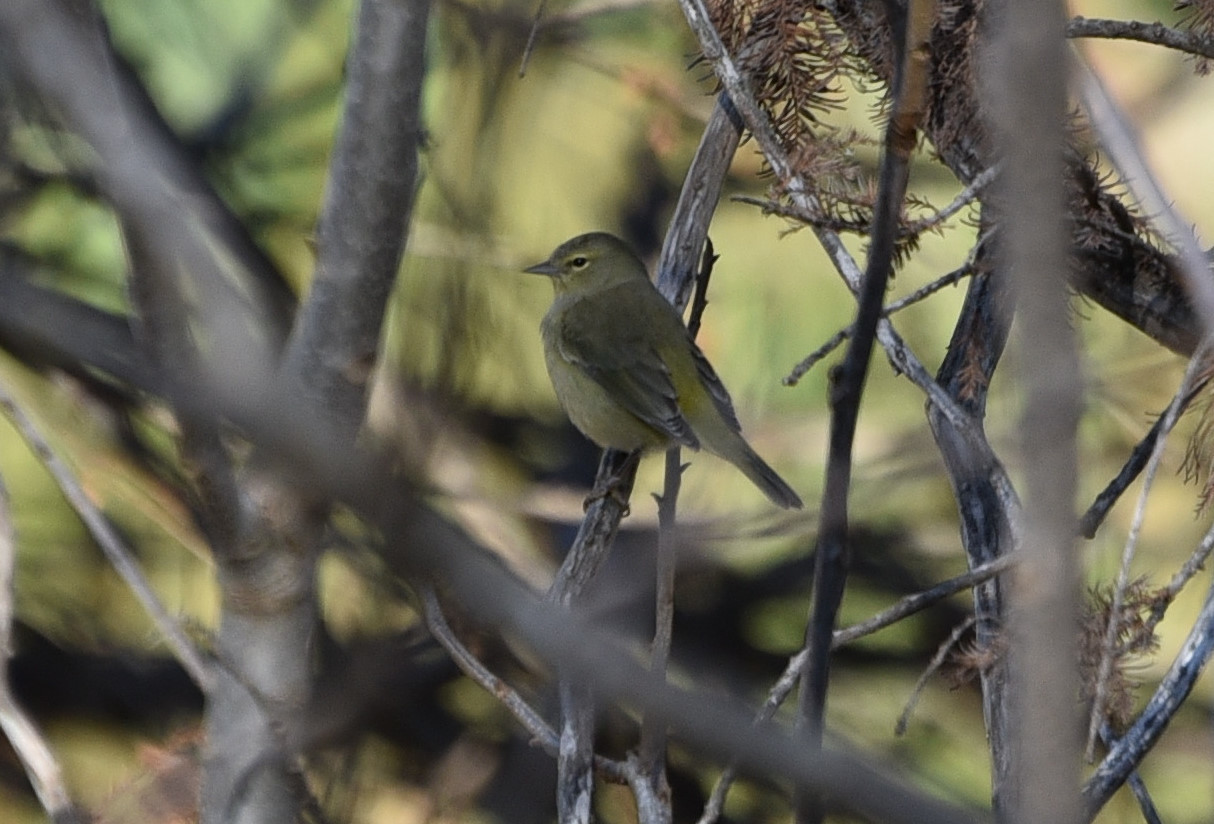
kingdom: Animalia
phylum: Chordata
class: Aves
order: Passeriformes
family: Parulidae
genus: Leiothlypis
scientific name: Leiothlypis celata
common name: Orange-crowned warbler
